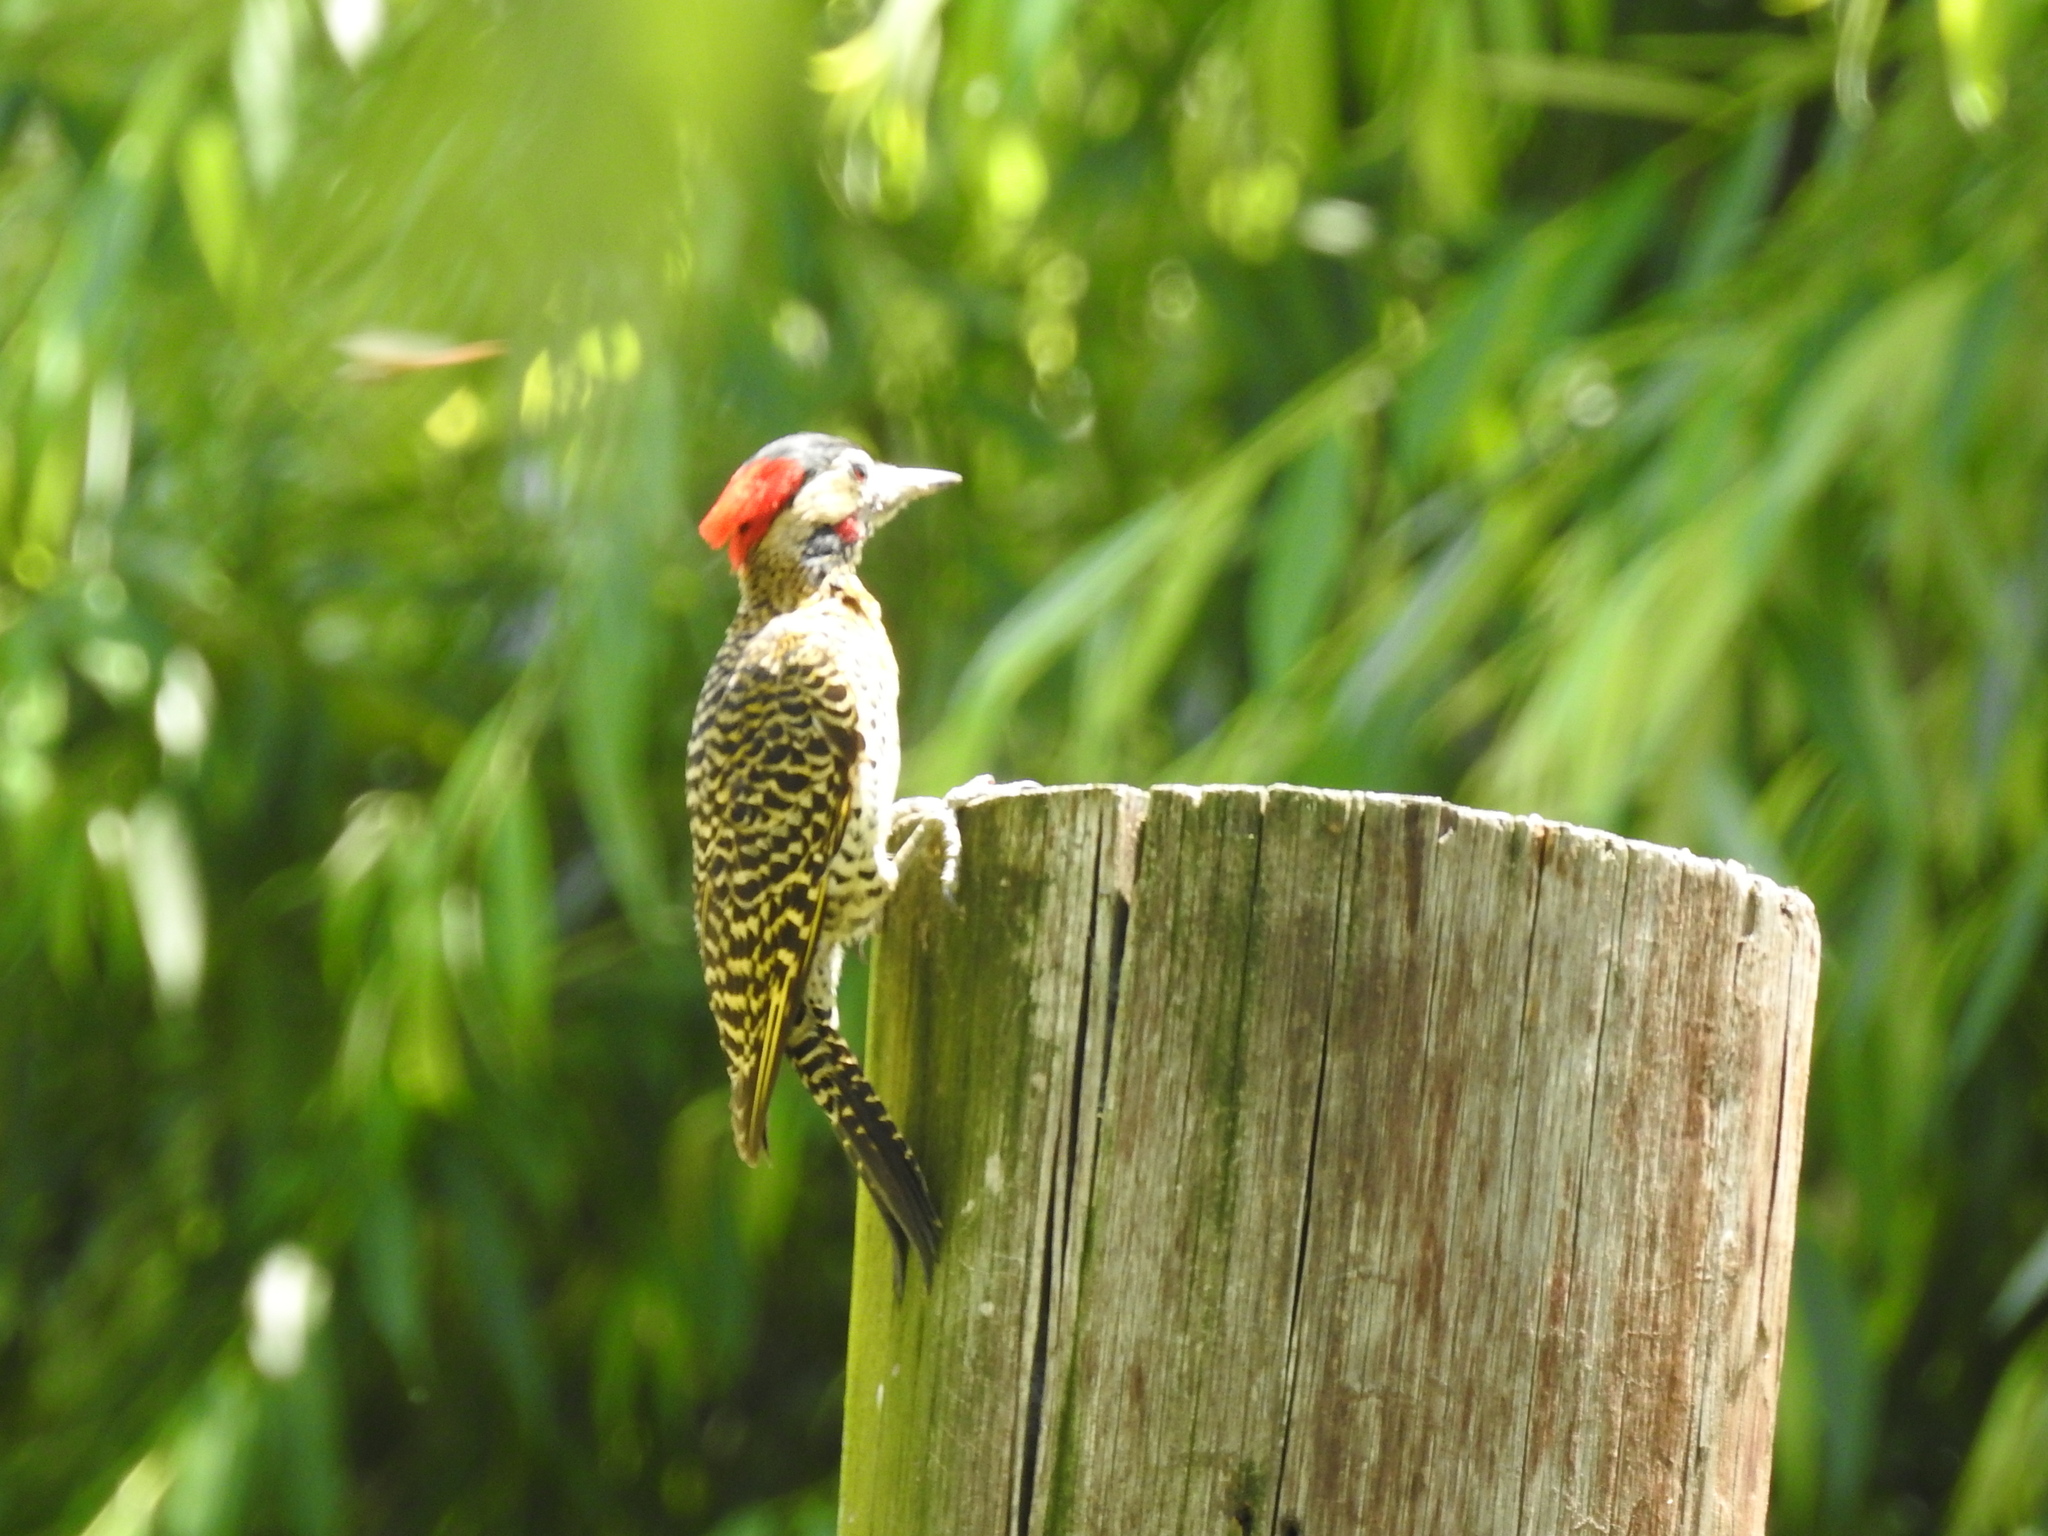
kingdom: Animalia
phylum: Chordata
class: Aves
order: Piciformes
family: Picidae
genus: Colaptes
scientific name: Colaptes melanochloros
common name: Green-barred woodpecker
